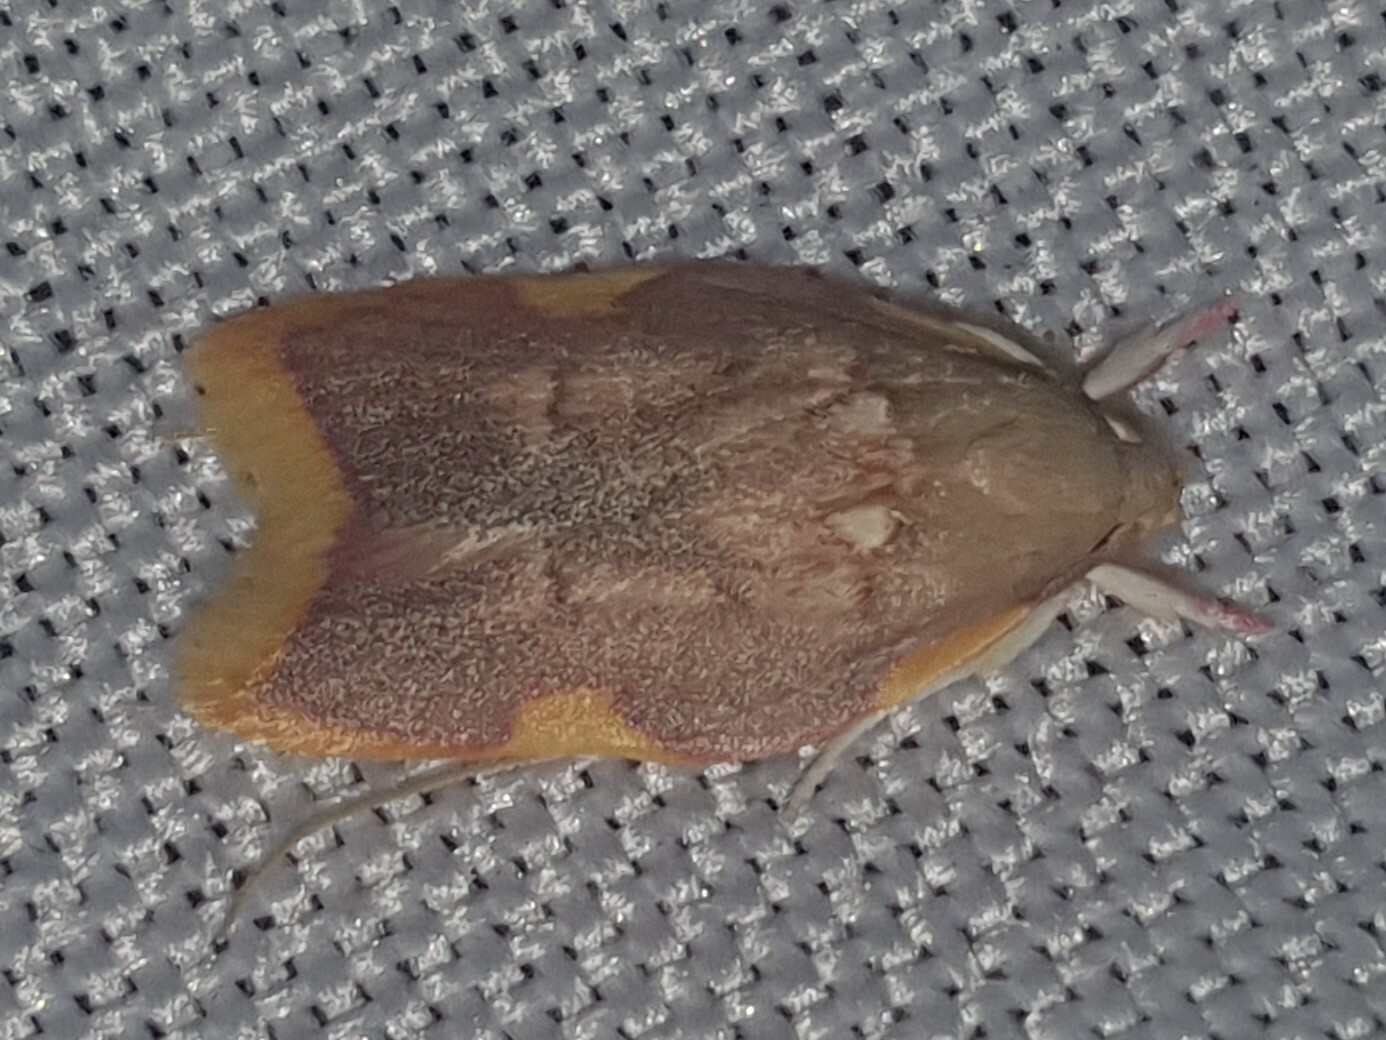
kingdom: Animalia
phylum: Arthropoda
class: Insecta
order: Lepidoptera
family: Peleopodidae
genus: Carcina
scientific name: Carcina quercana
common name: Moth
